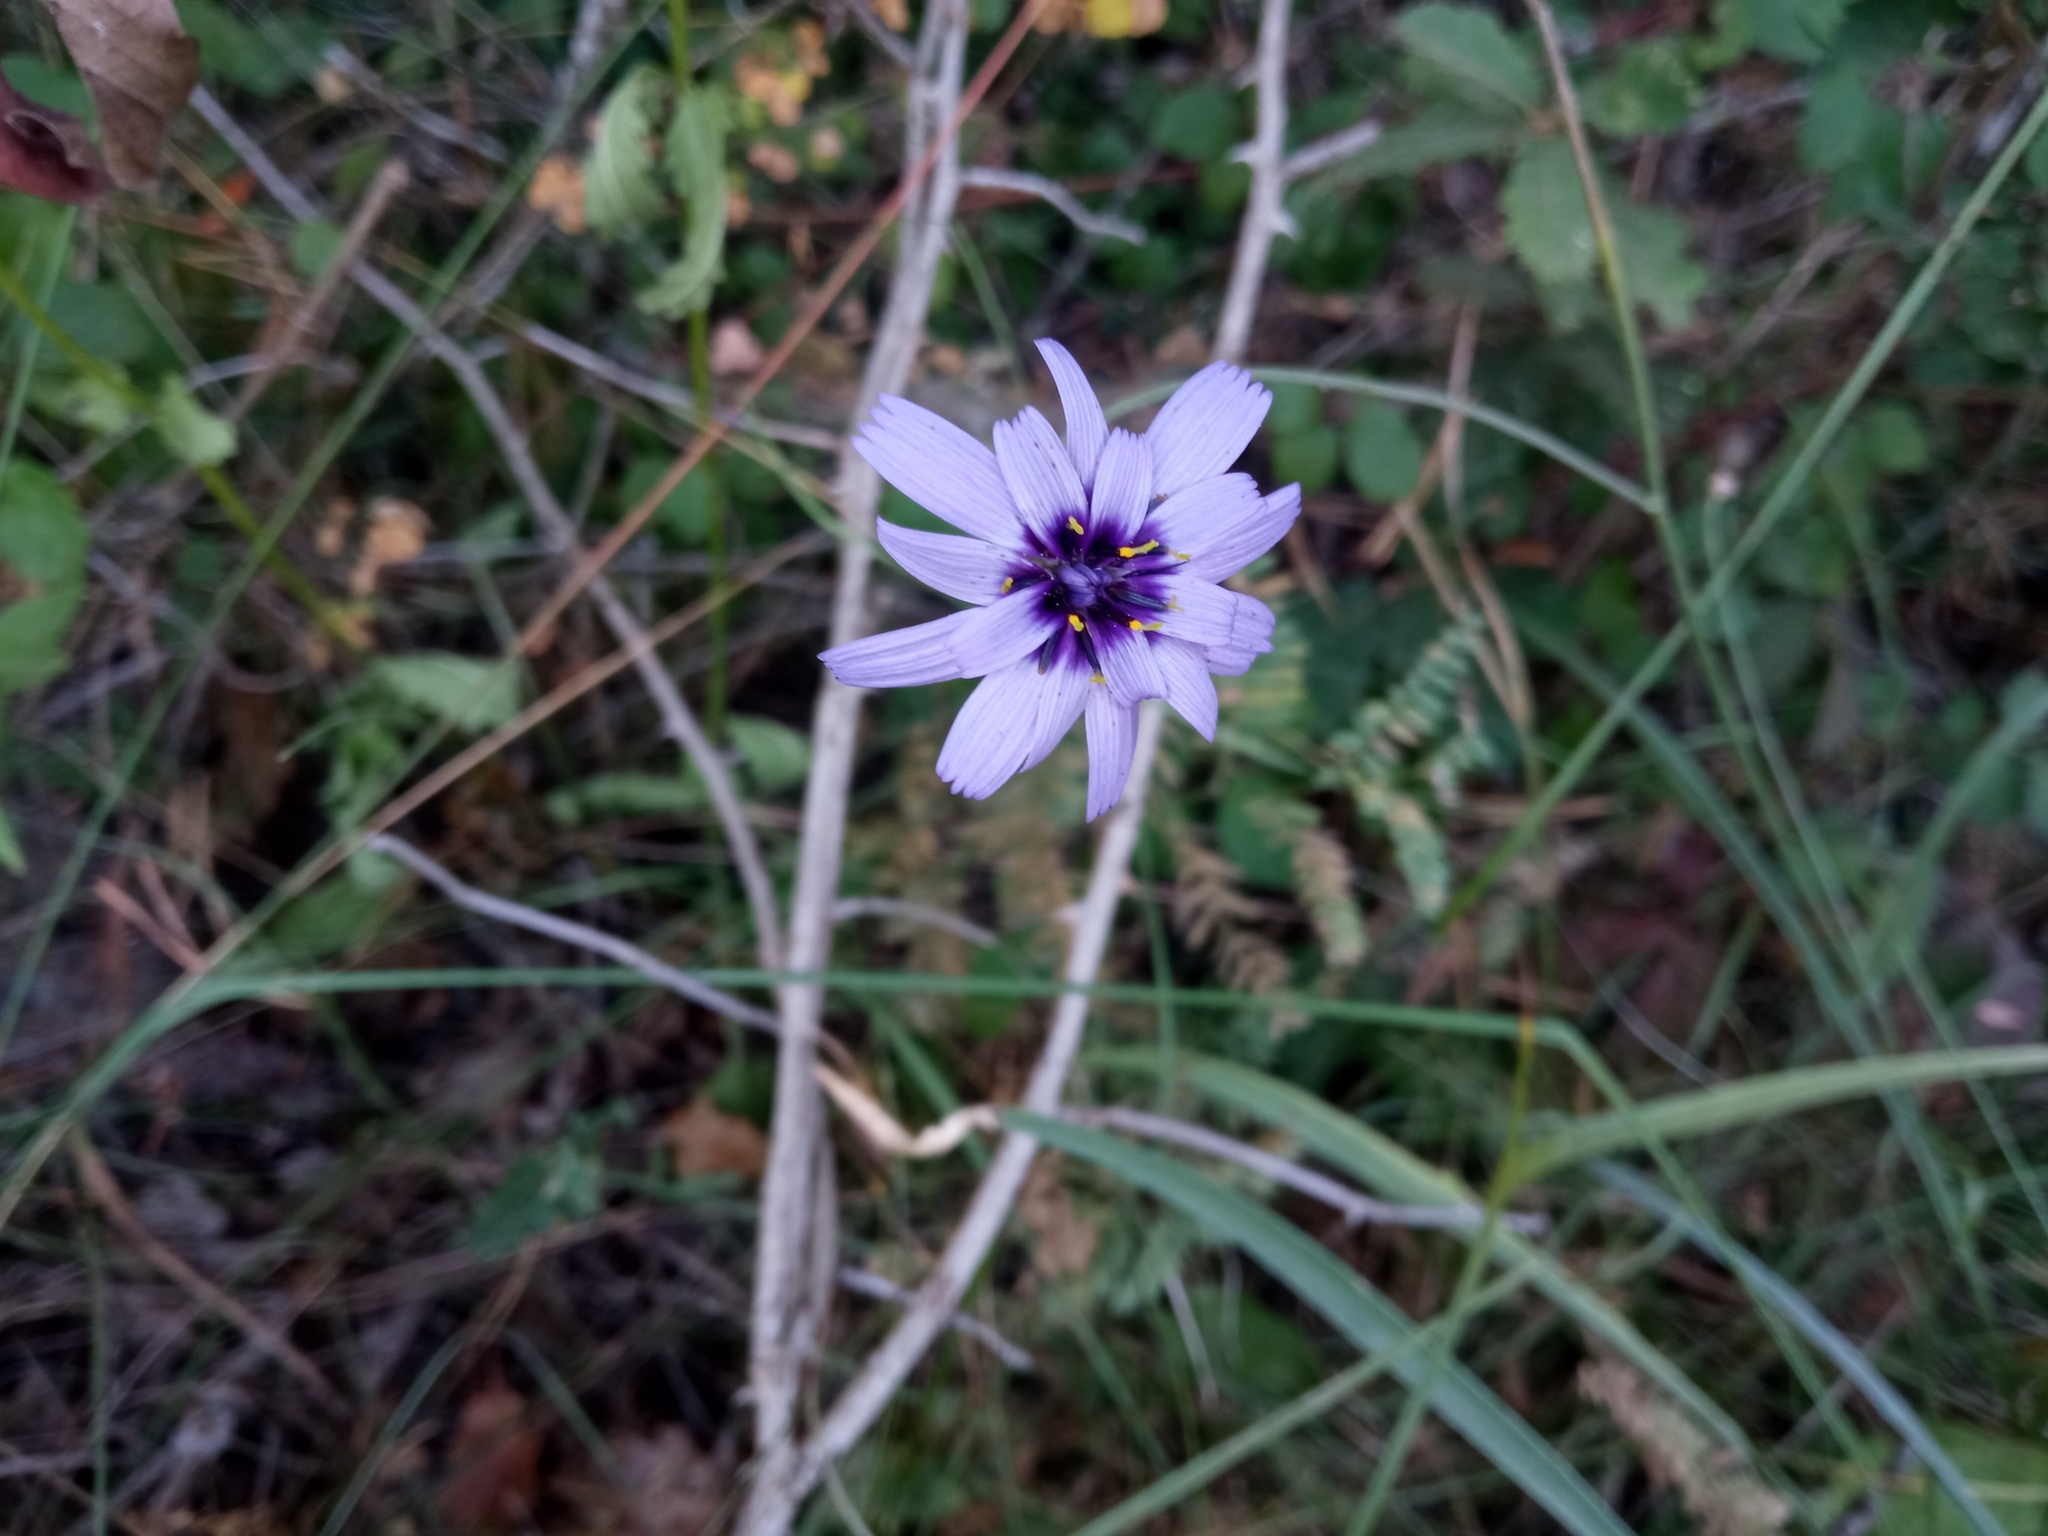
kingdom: Plantae
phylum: Tracheophyta
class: Magnoliopsida
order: Asterales
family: Asteraceae
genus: Catananche
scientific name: Catananche caerulea
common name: Blue cupidone
